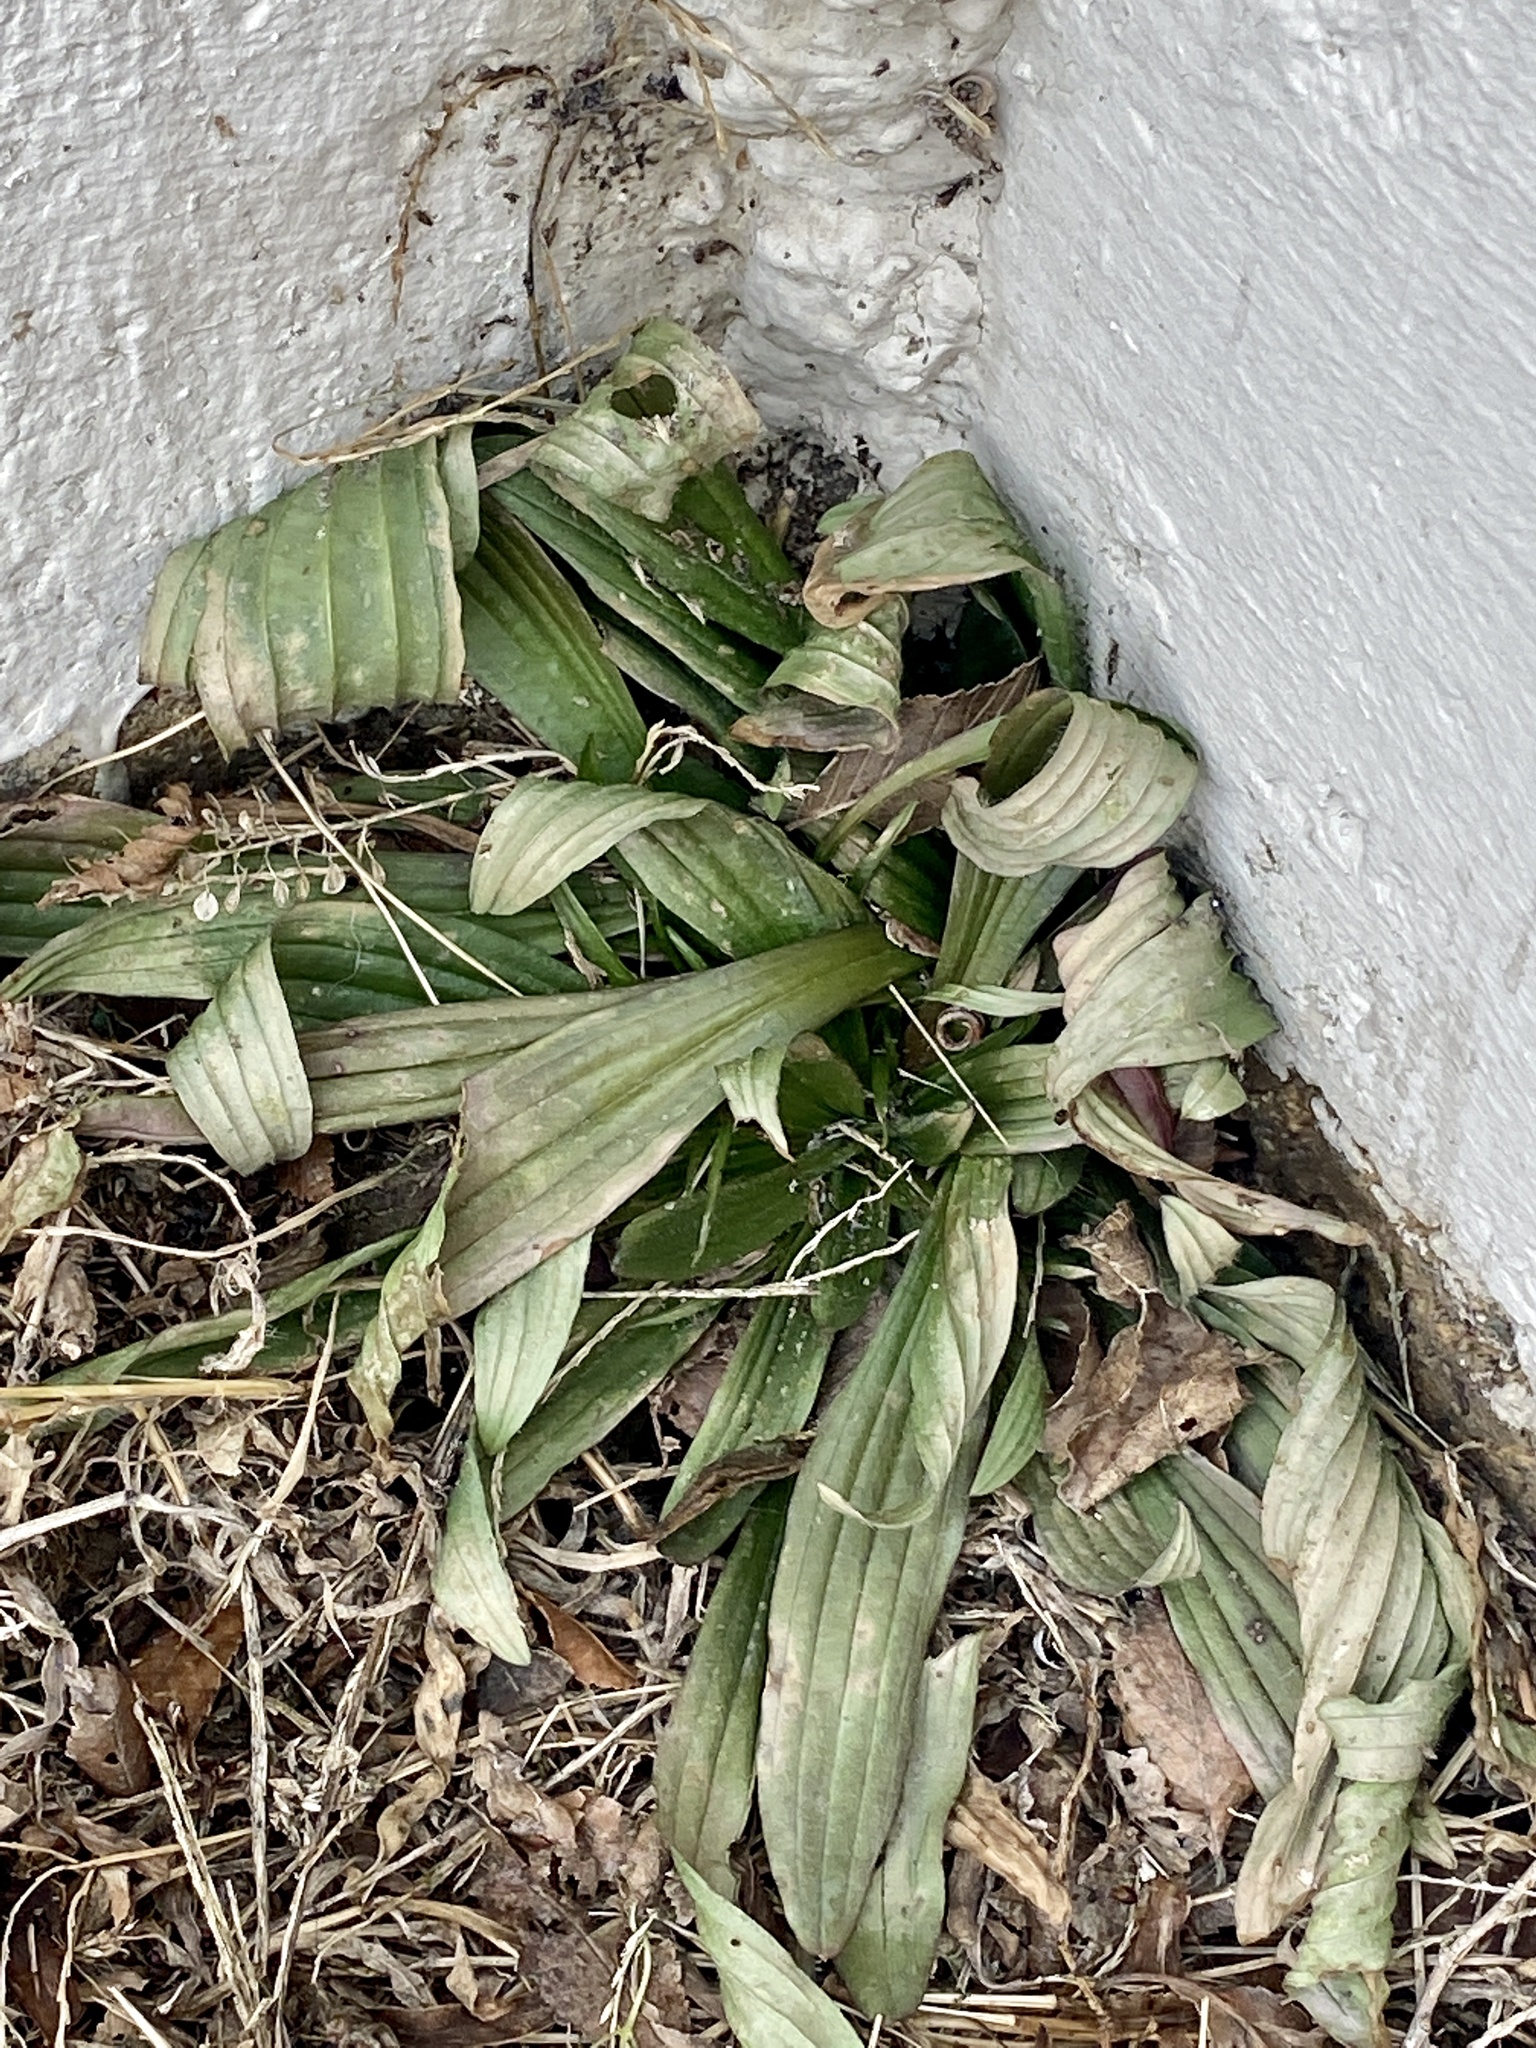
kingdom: Plantae
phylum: Tracheophyta
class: Magnoliopsida
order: Lamiales
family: Plantaginaceae
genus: Plantago
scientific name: Plantago lanceolata
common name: Ribwort plantain
